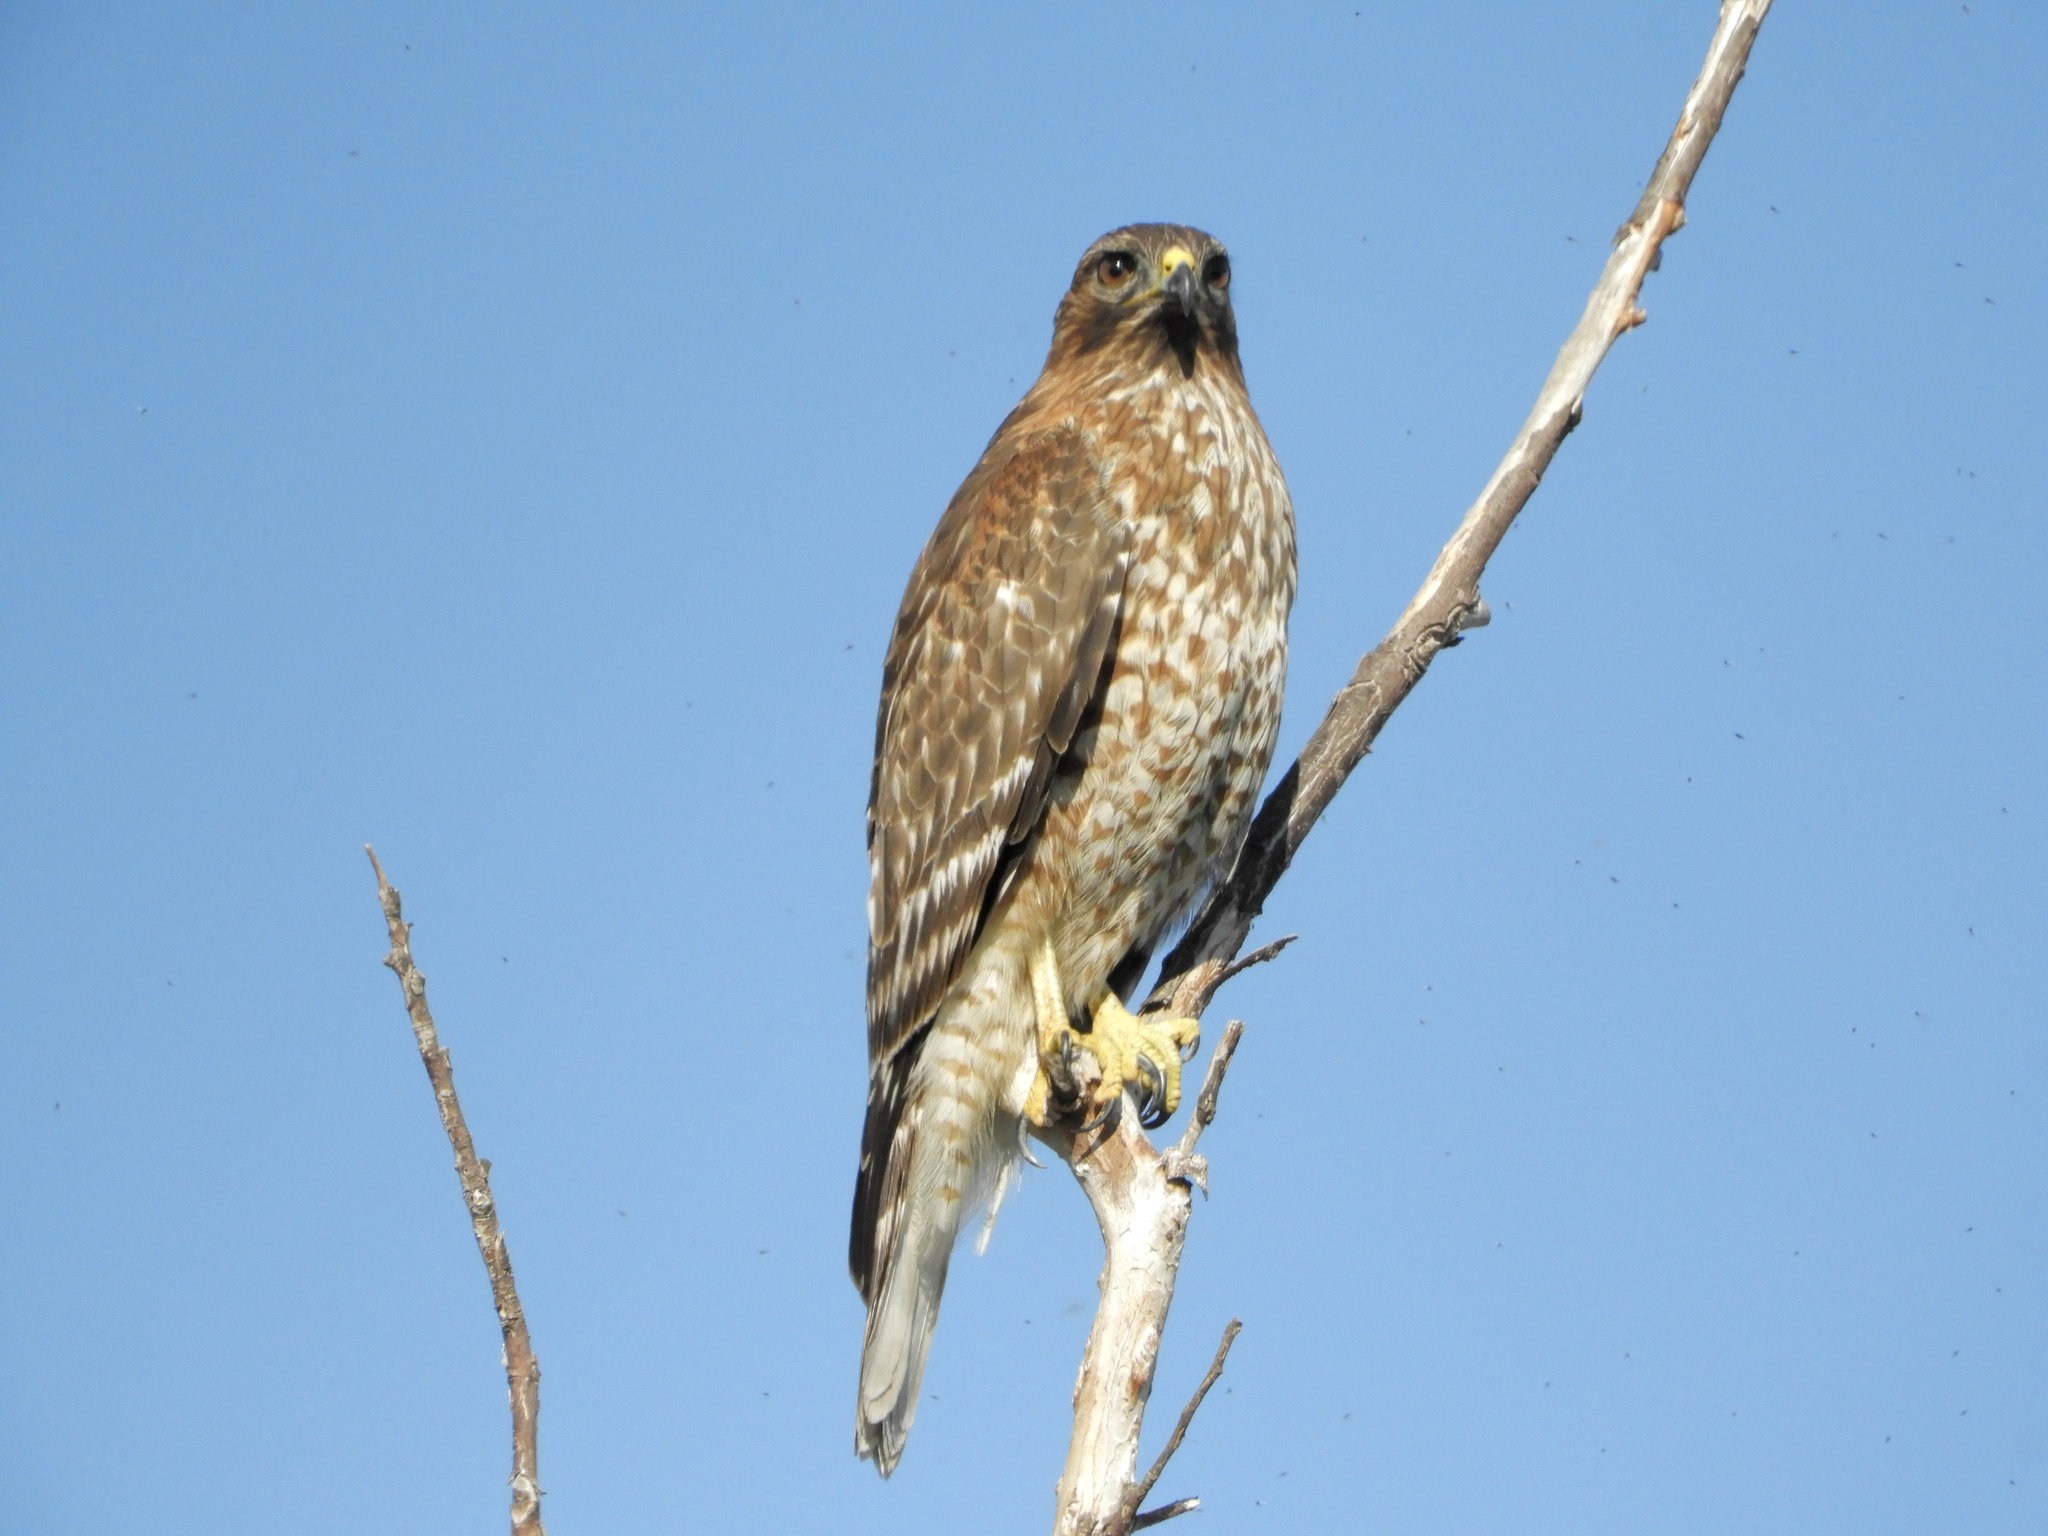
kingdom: Animalia
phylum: Chordata
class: Aves
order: Accipitriformes
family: Accipitridae
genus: Buteo
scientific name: Buteo lineatus
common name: Red-shouldered hawk
